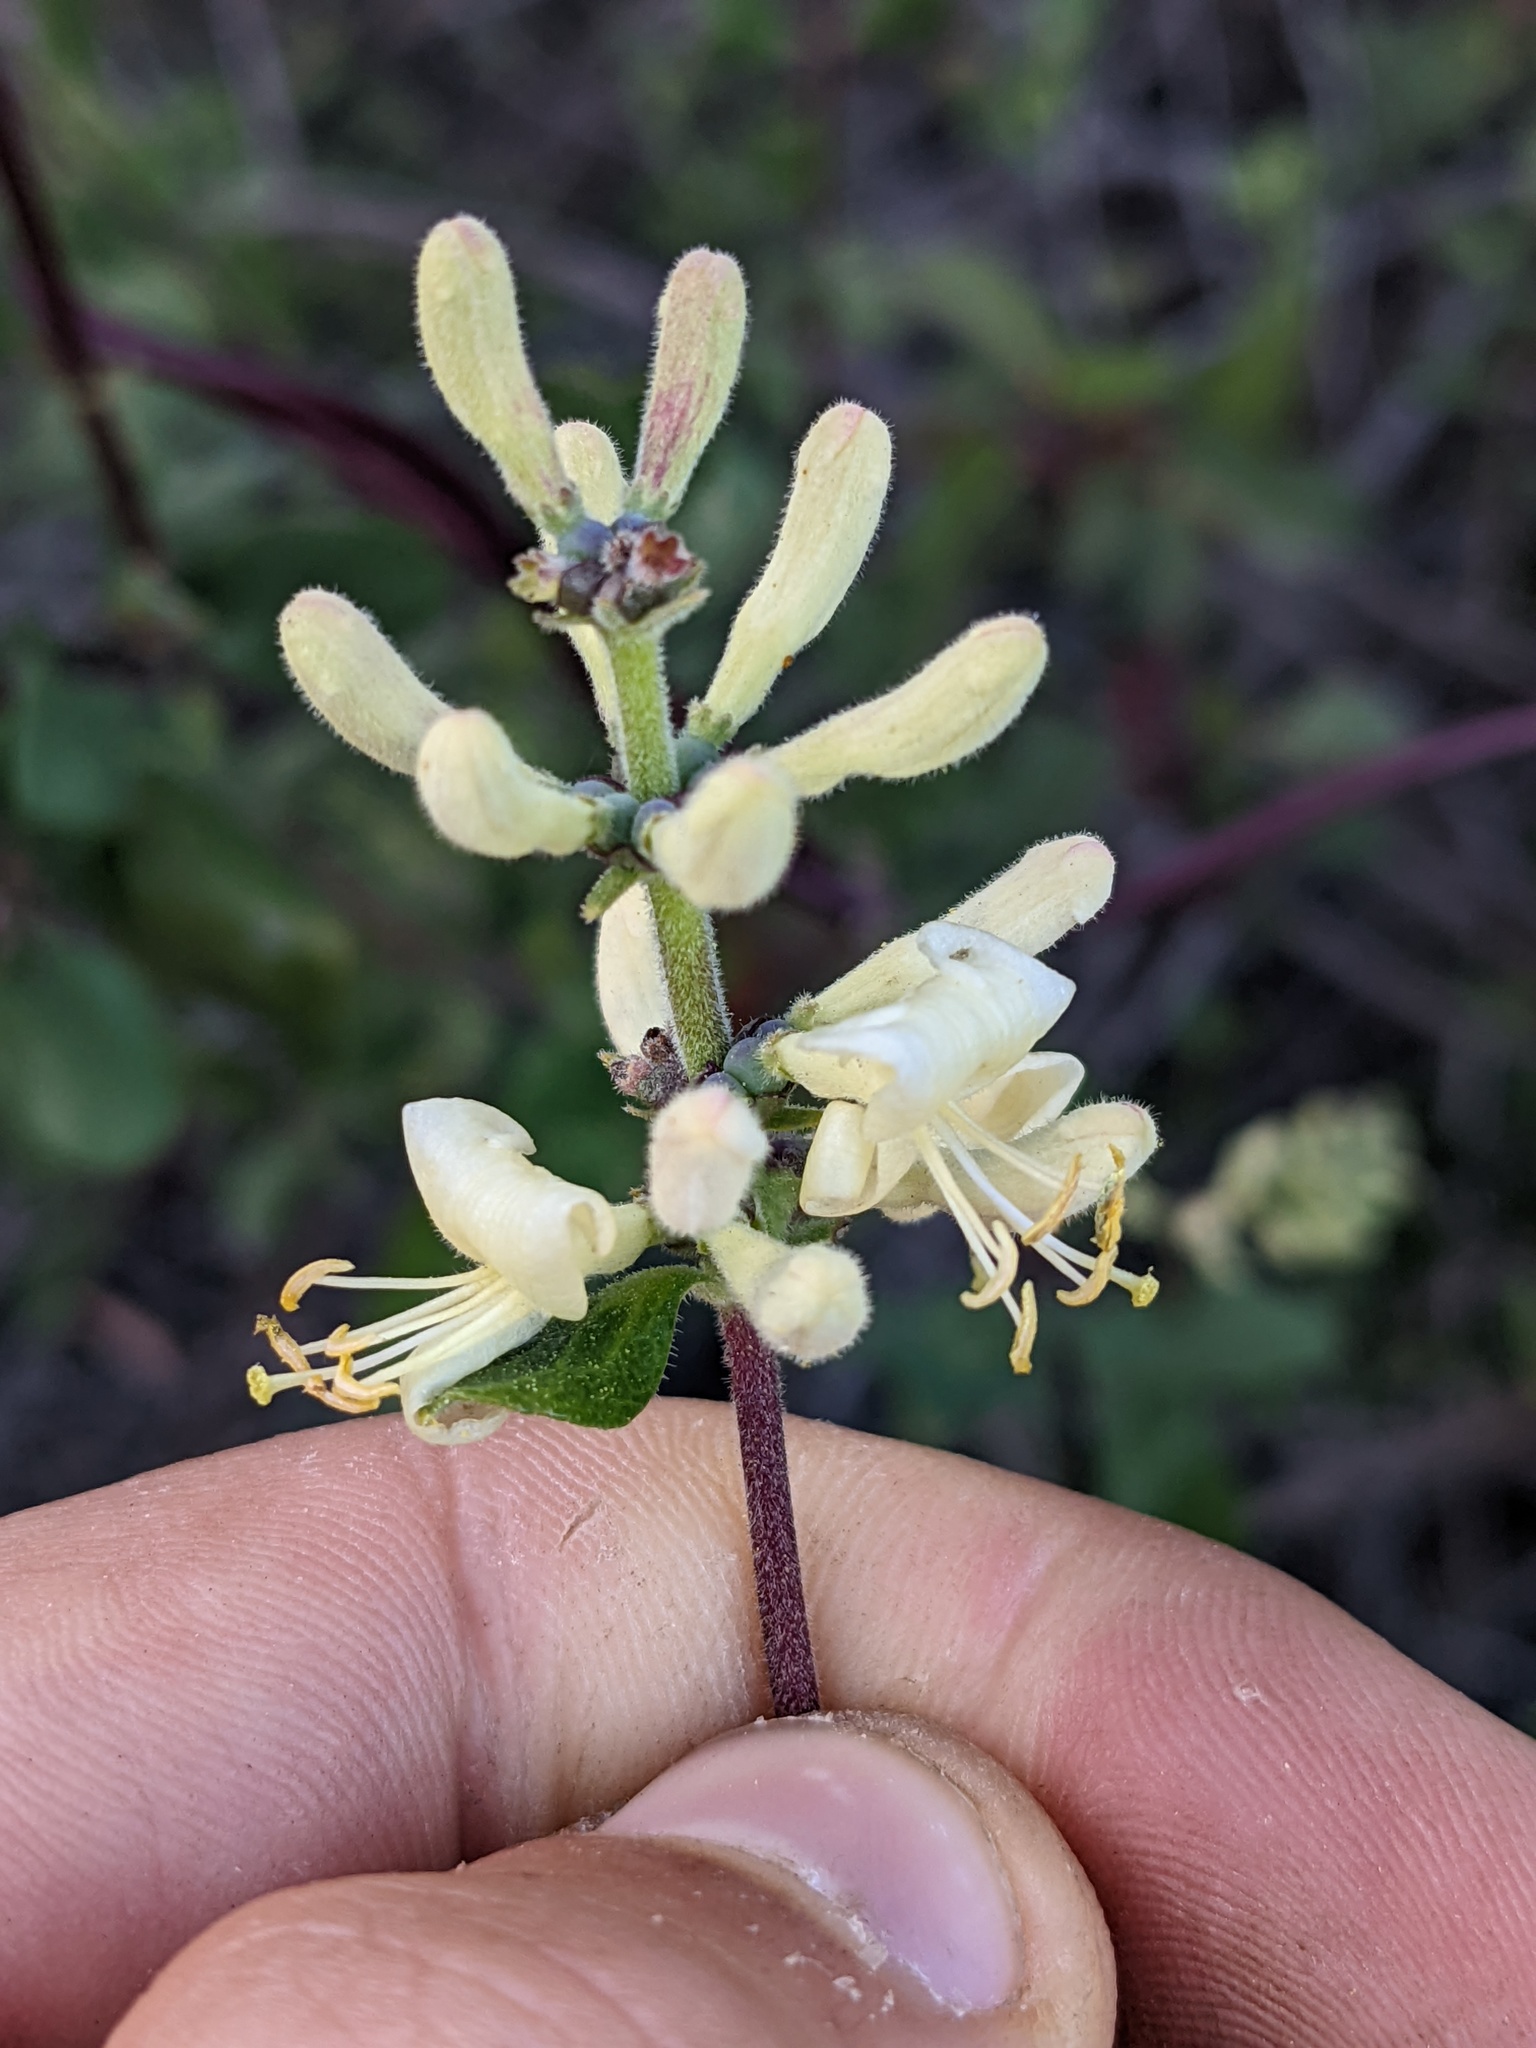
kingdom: Plantae
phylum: Tracheophyta
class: Magnoliopsida
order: Dipsacales
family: Caprifoliaceae
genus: Lonicera
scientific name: Lonicera subspicata
